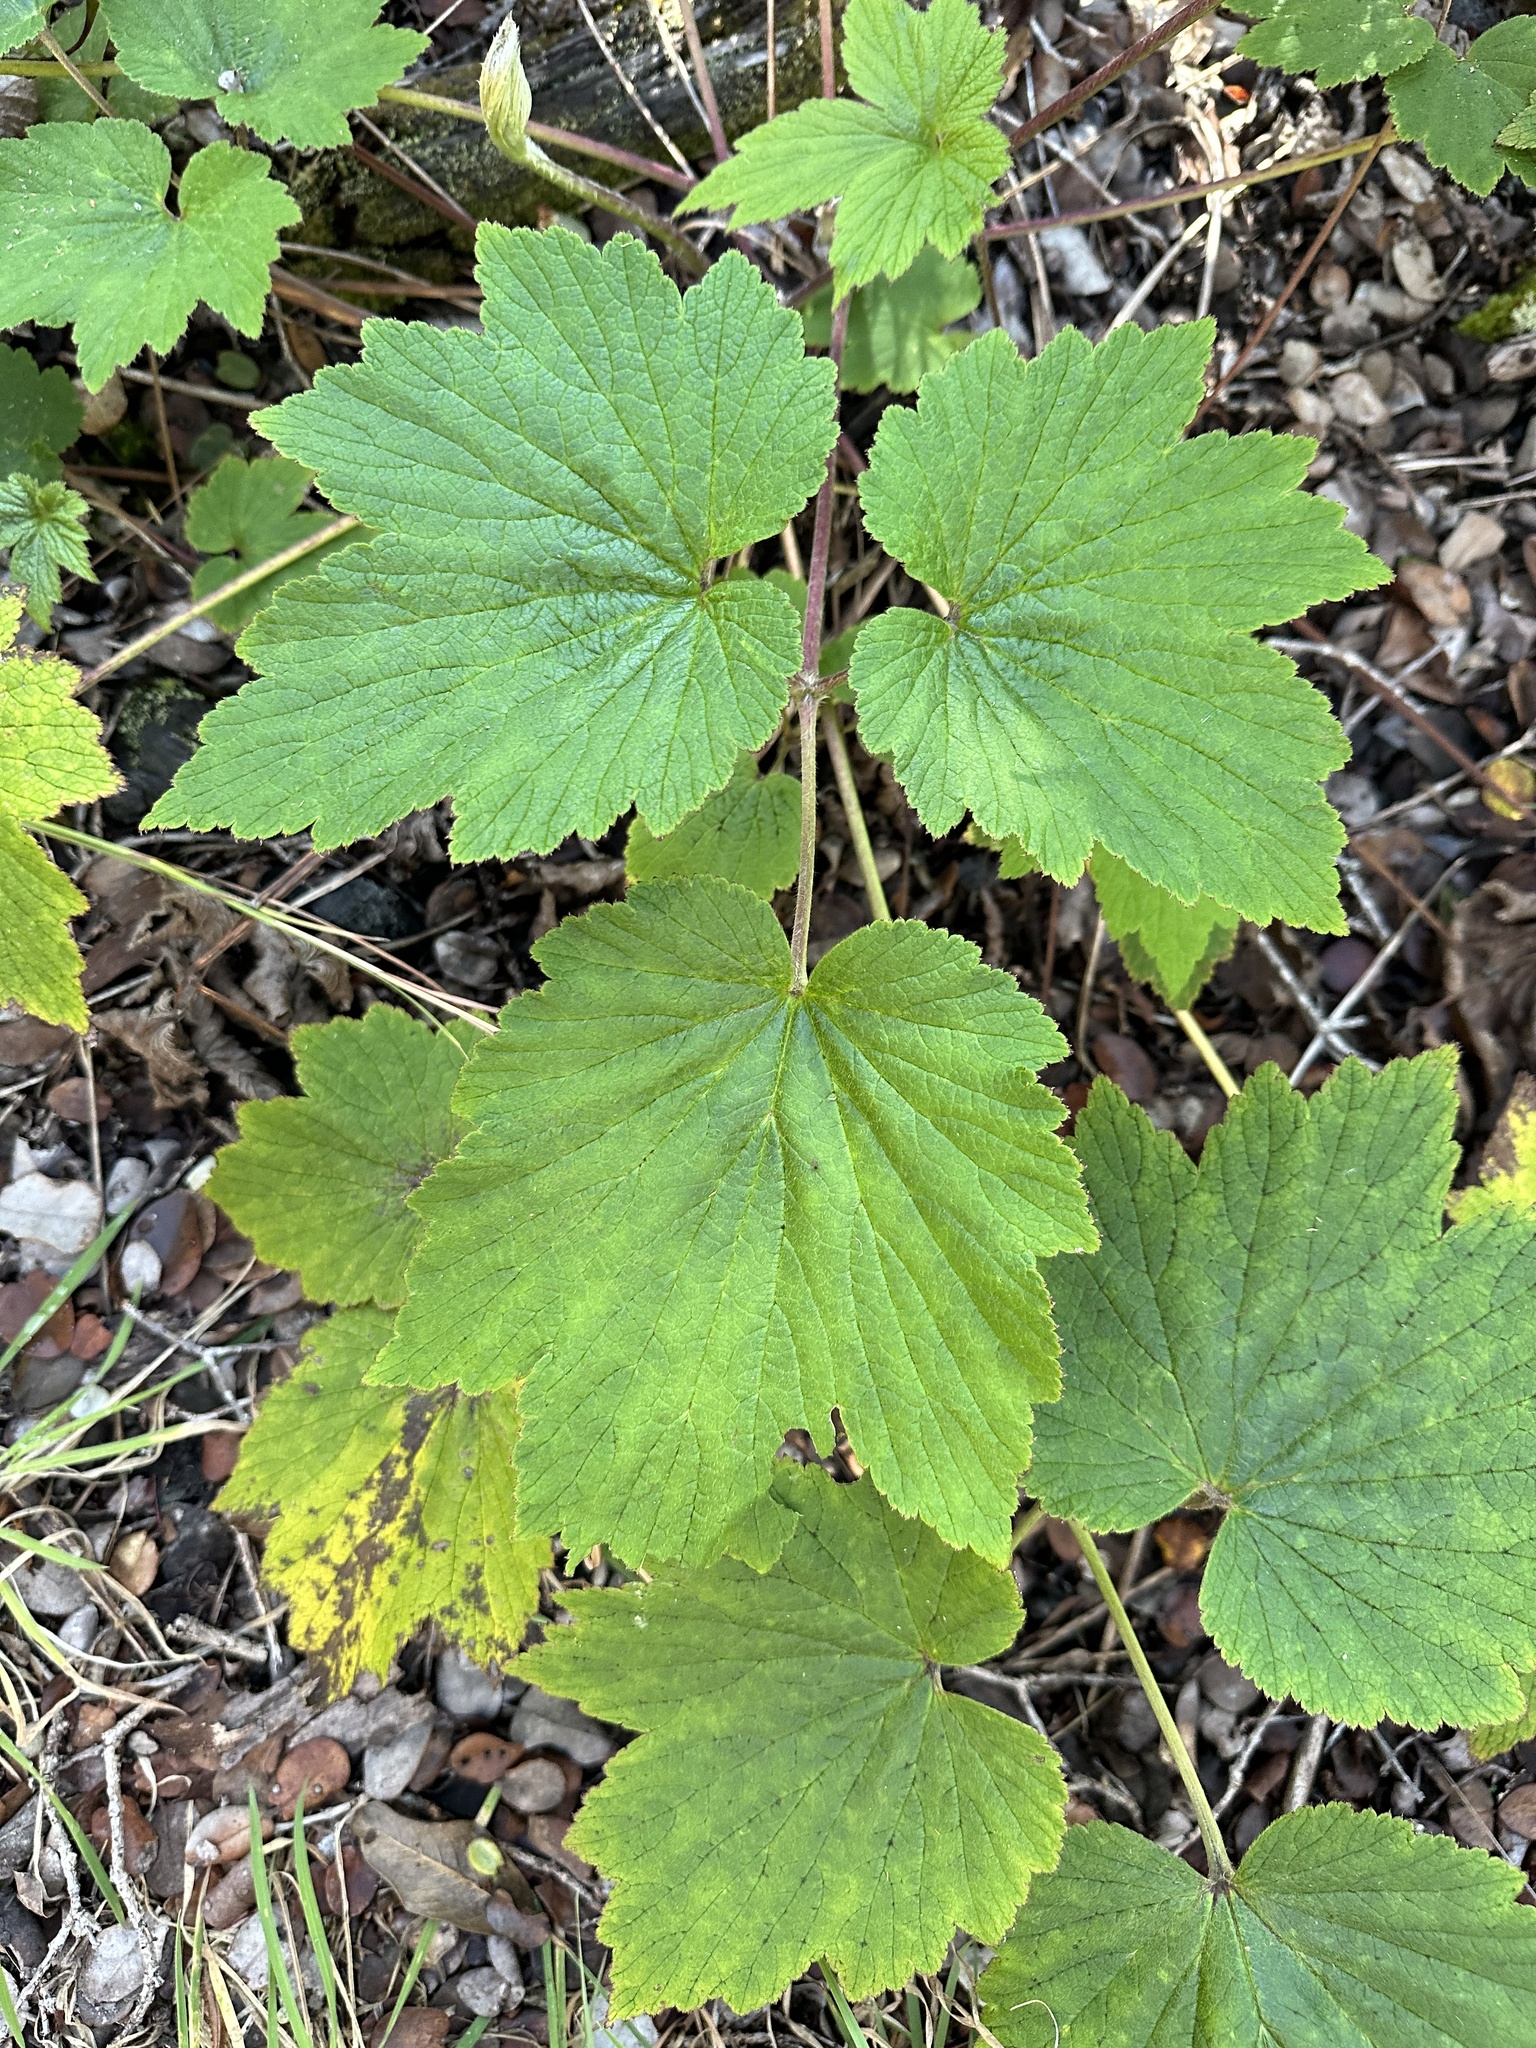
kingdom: Plantae
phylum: Tracheophyta
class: Magnoliopsida
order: Ranunculales
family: Ranunculaceae
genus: Eriocapitella
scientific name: Eriocapitella japonica
